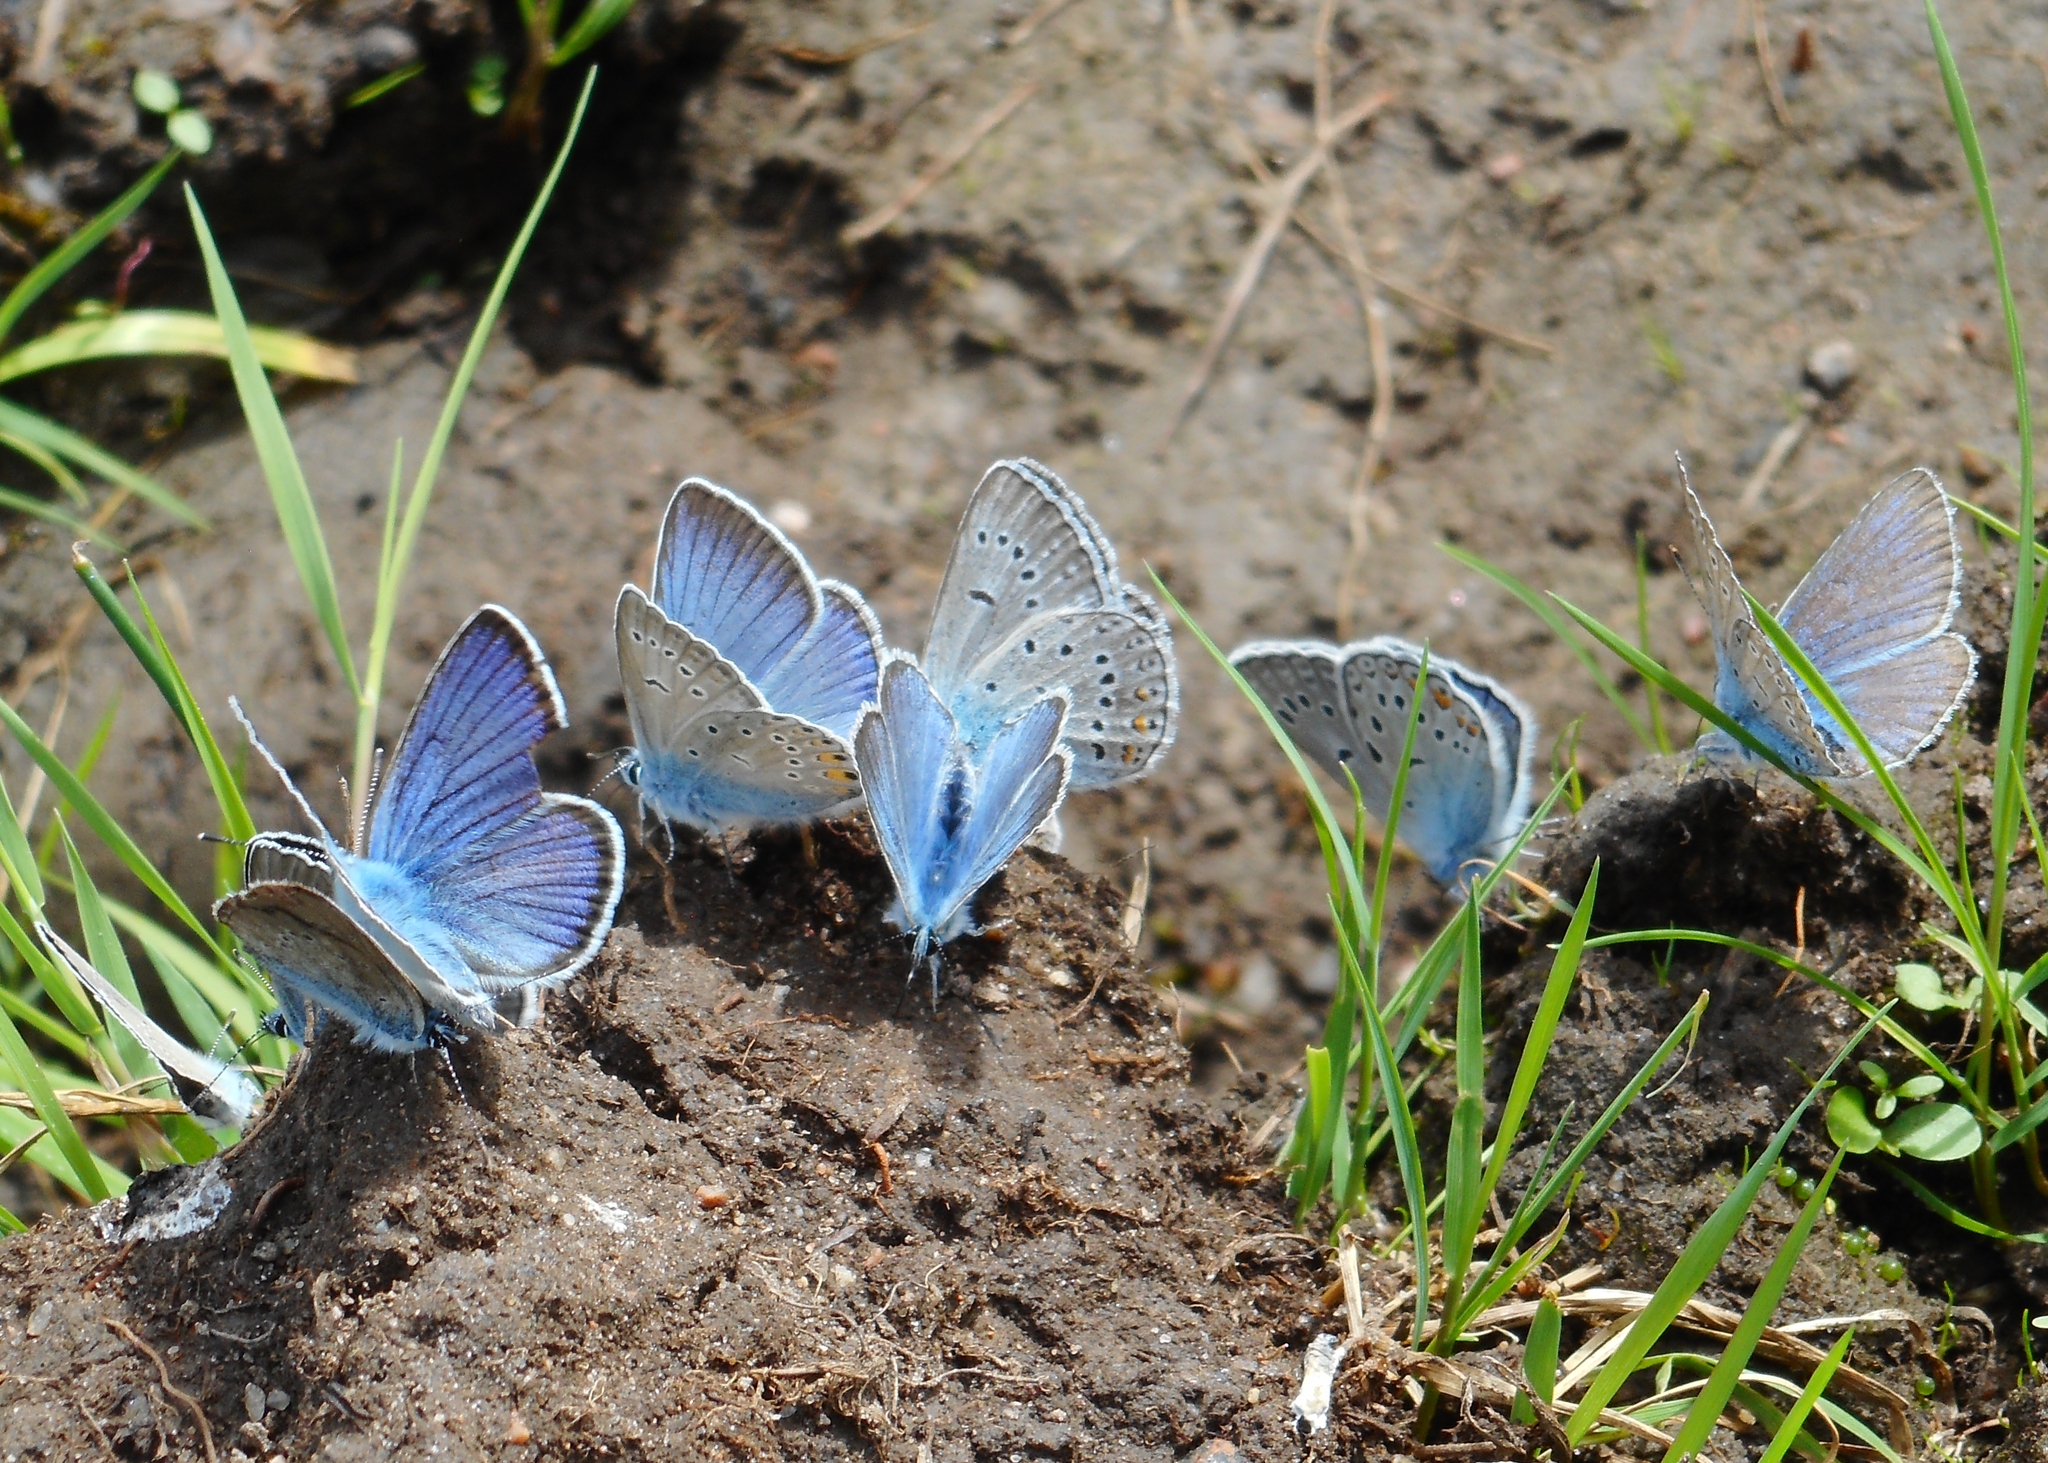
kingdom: Animalia
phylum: Arthropoda
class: Insecta
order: Lepidoptera
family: Lycaenidae
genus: Plebejus
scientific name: Plebejus amanda
